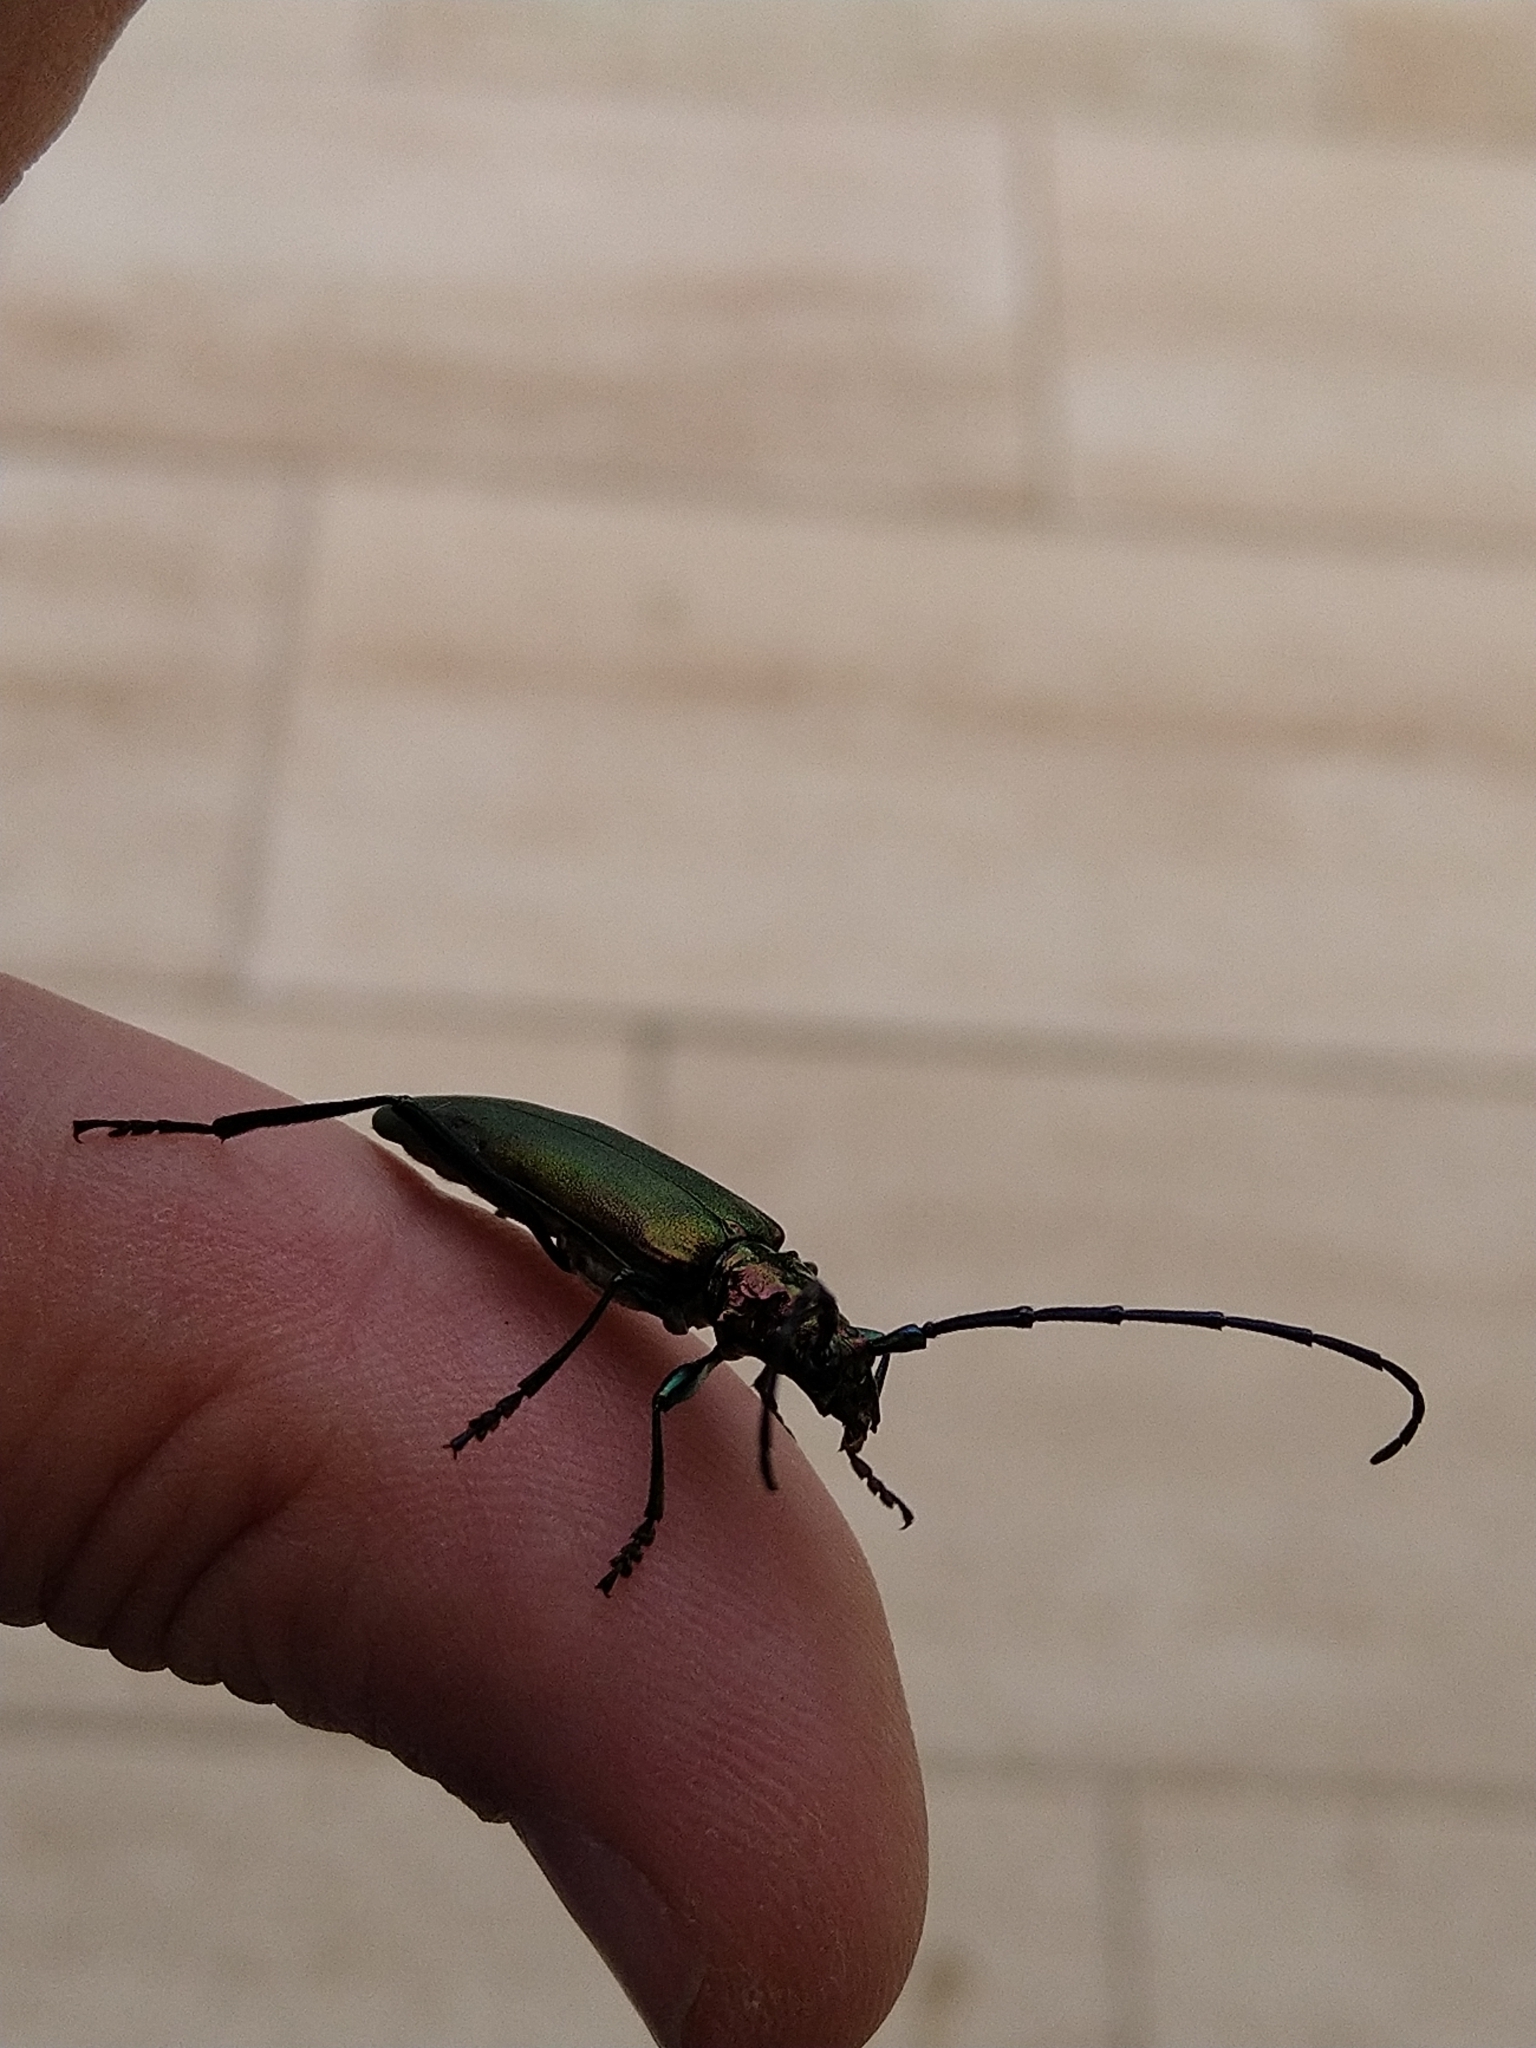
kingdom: Animalia
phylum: Arthropoda
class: Insecta
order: Coleoptera
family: Cerambycidae
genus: Aromia
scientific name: Aromia moschata
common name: Musk beetle
